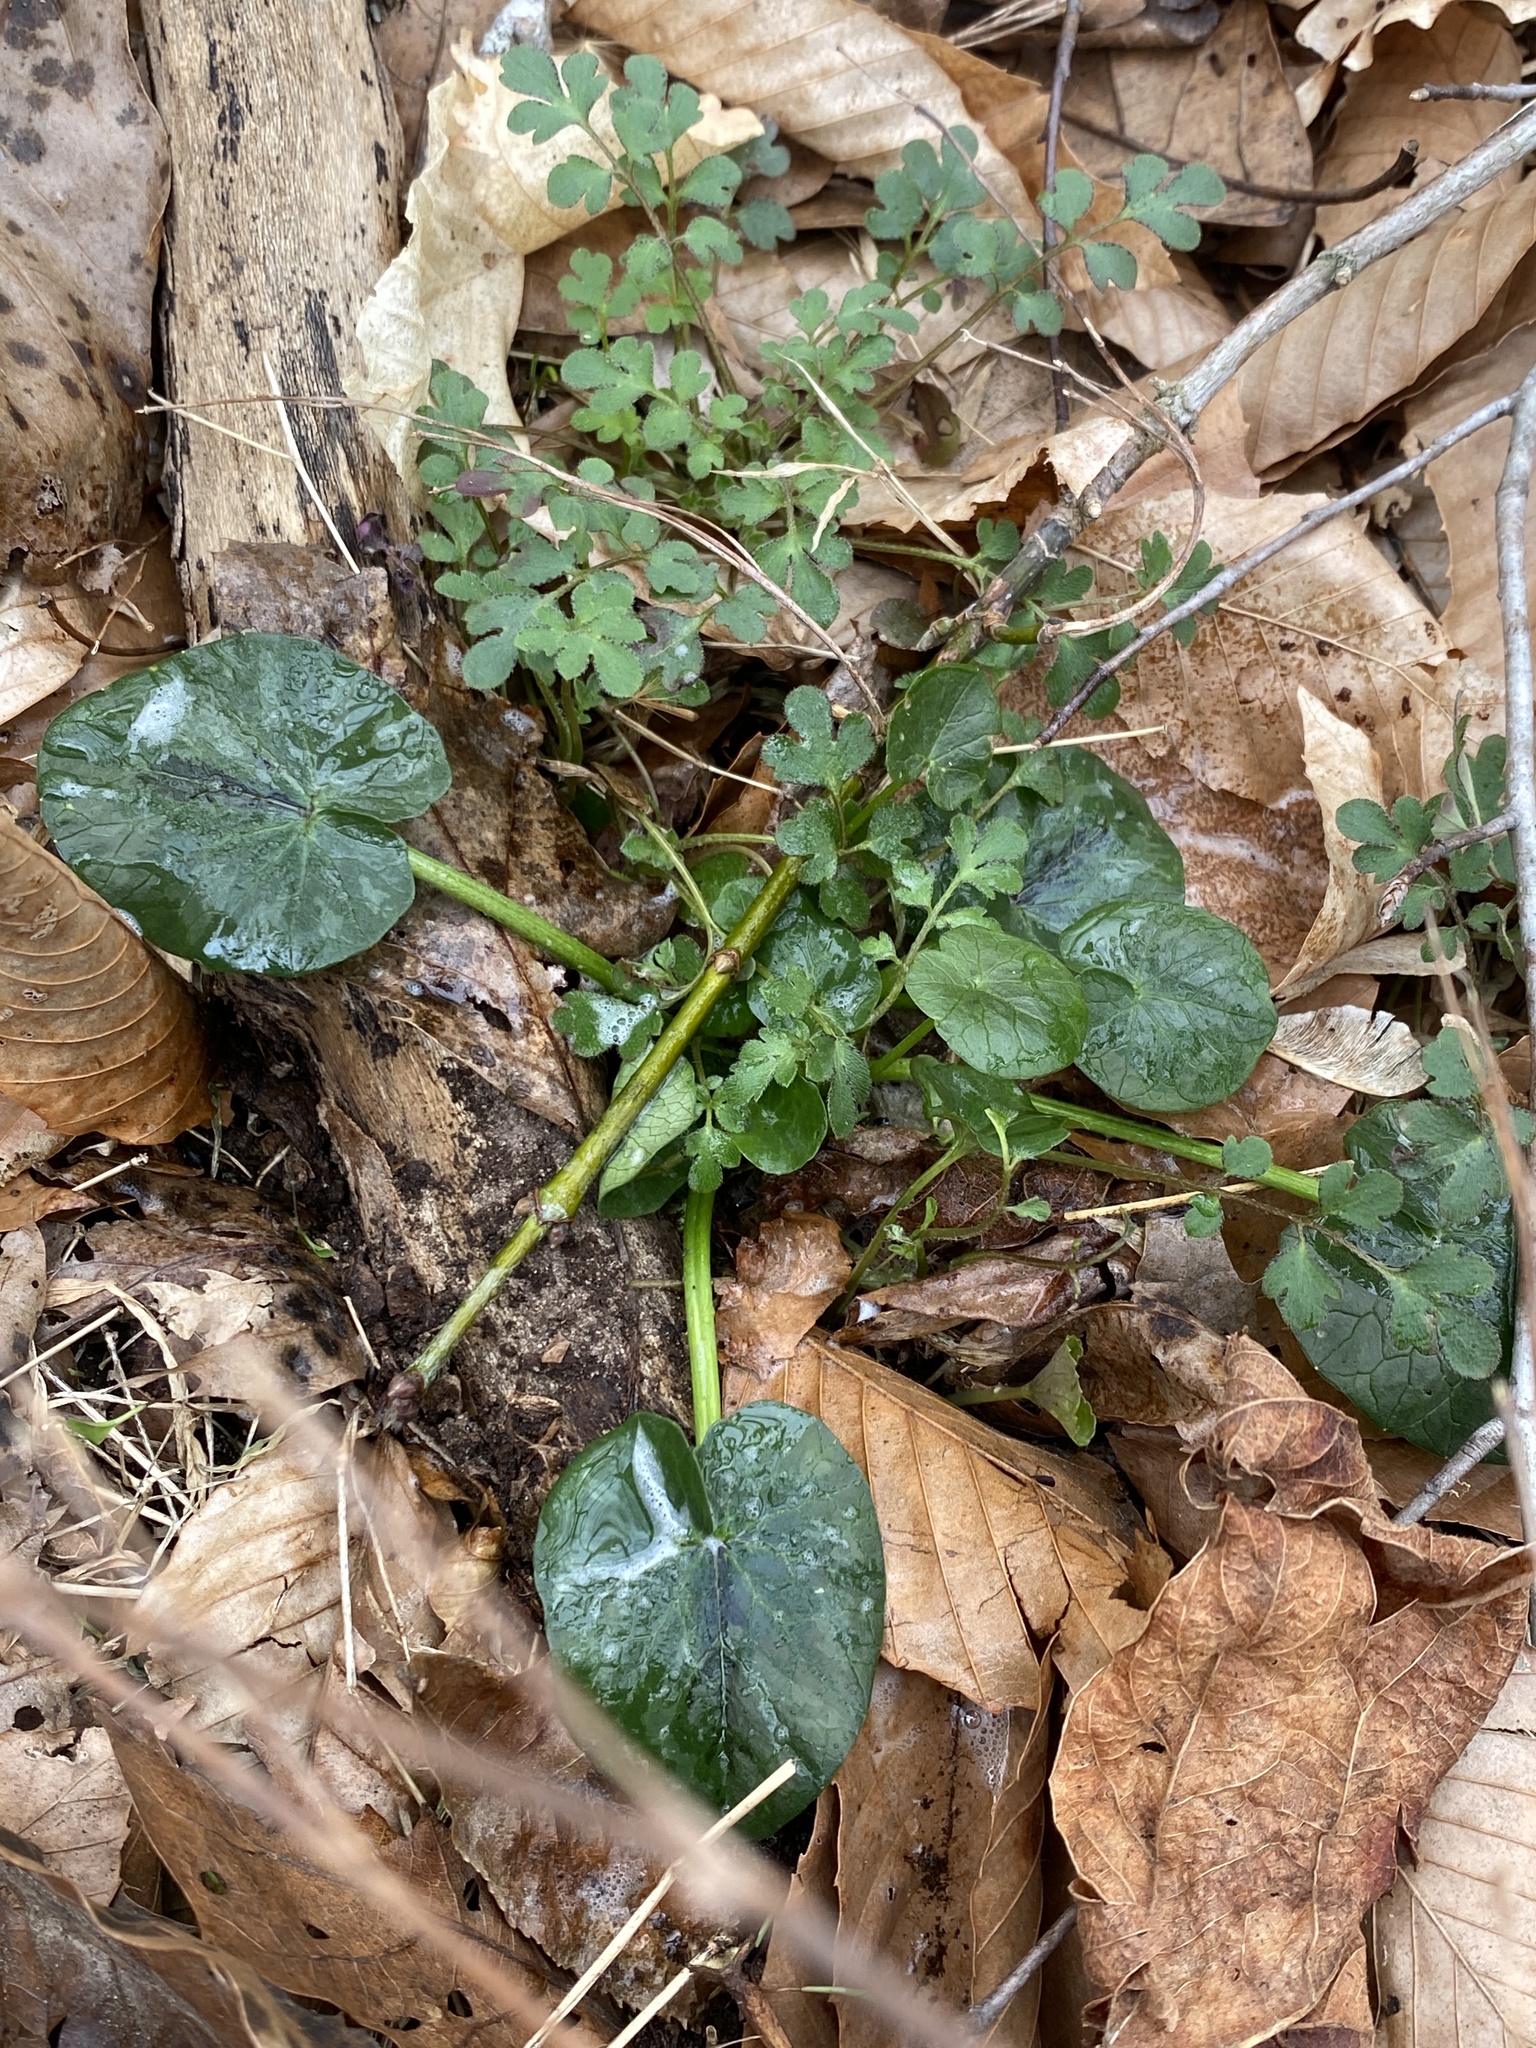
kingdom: Plantae
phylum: Tracheophyta
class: Magnoliopsida
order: Ranunculales
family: Ranunculaceae
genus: Ficaria
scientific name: Ficaria verna
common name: Lesser celandine
